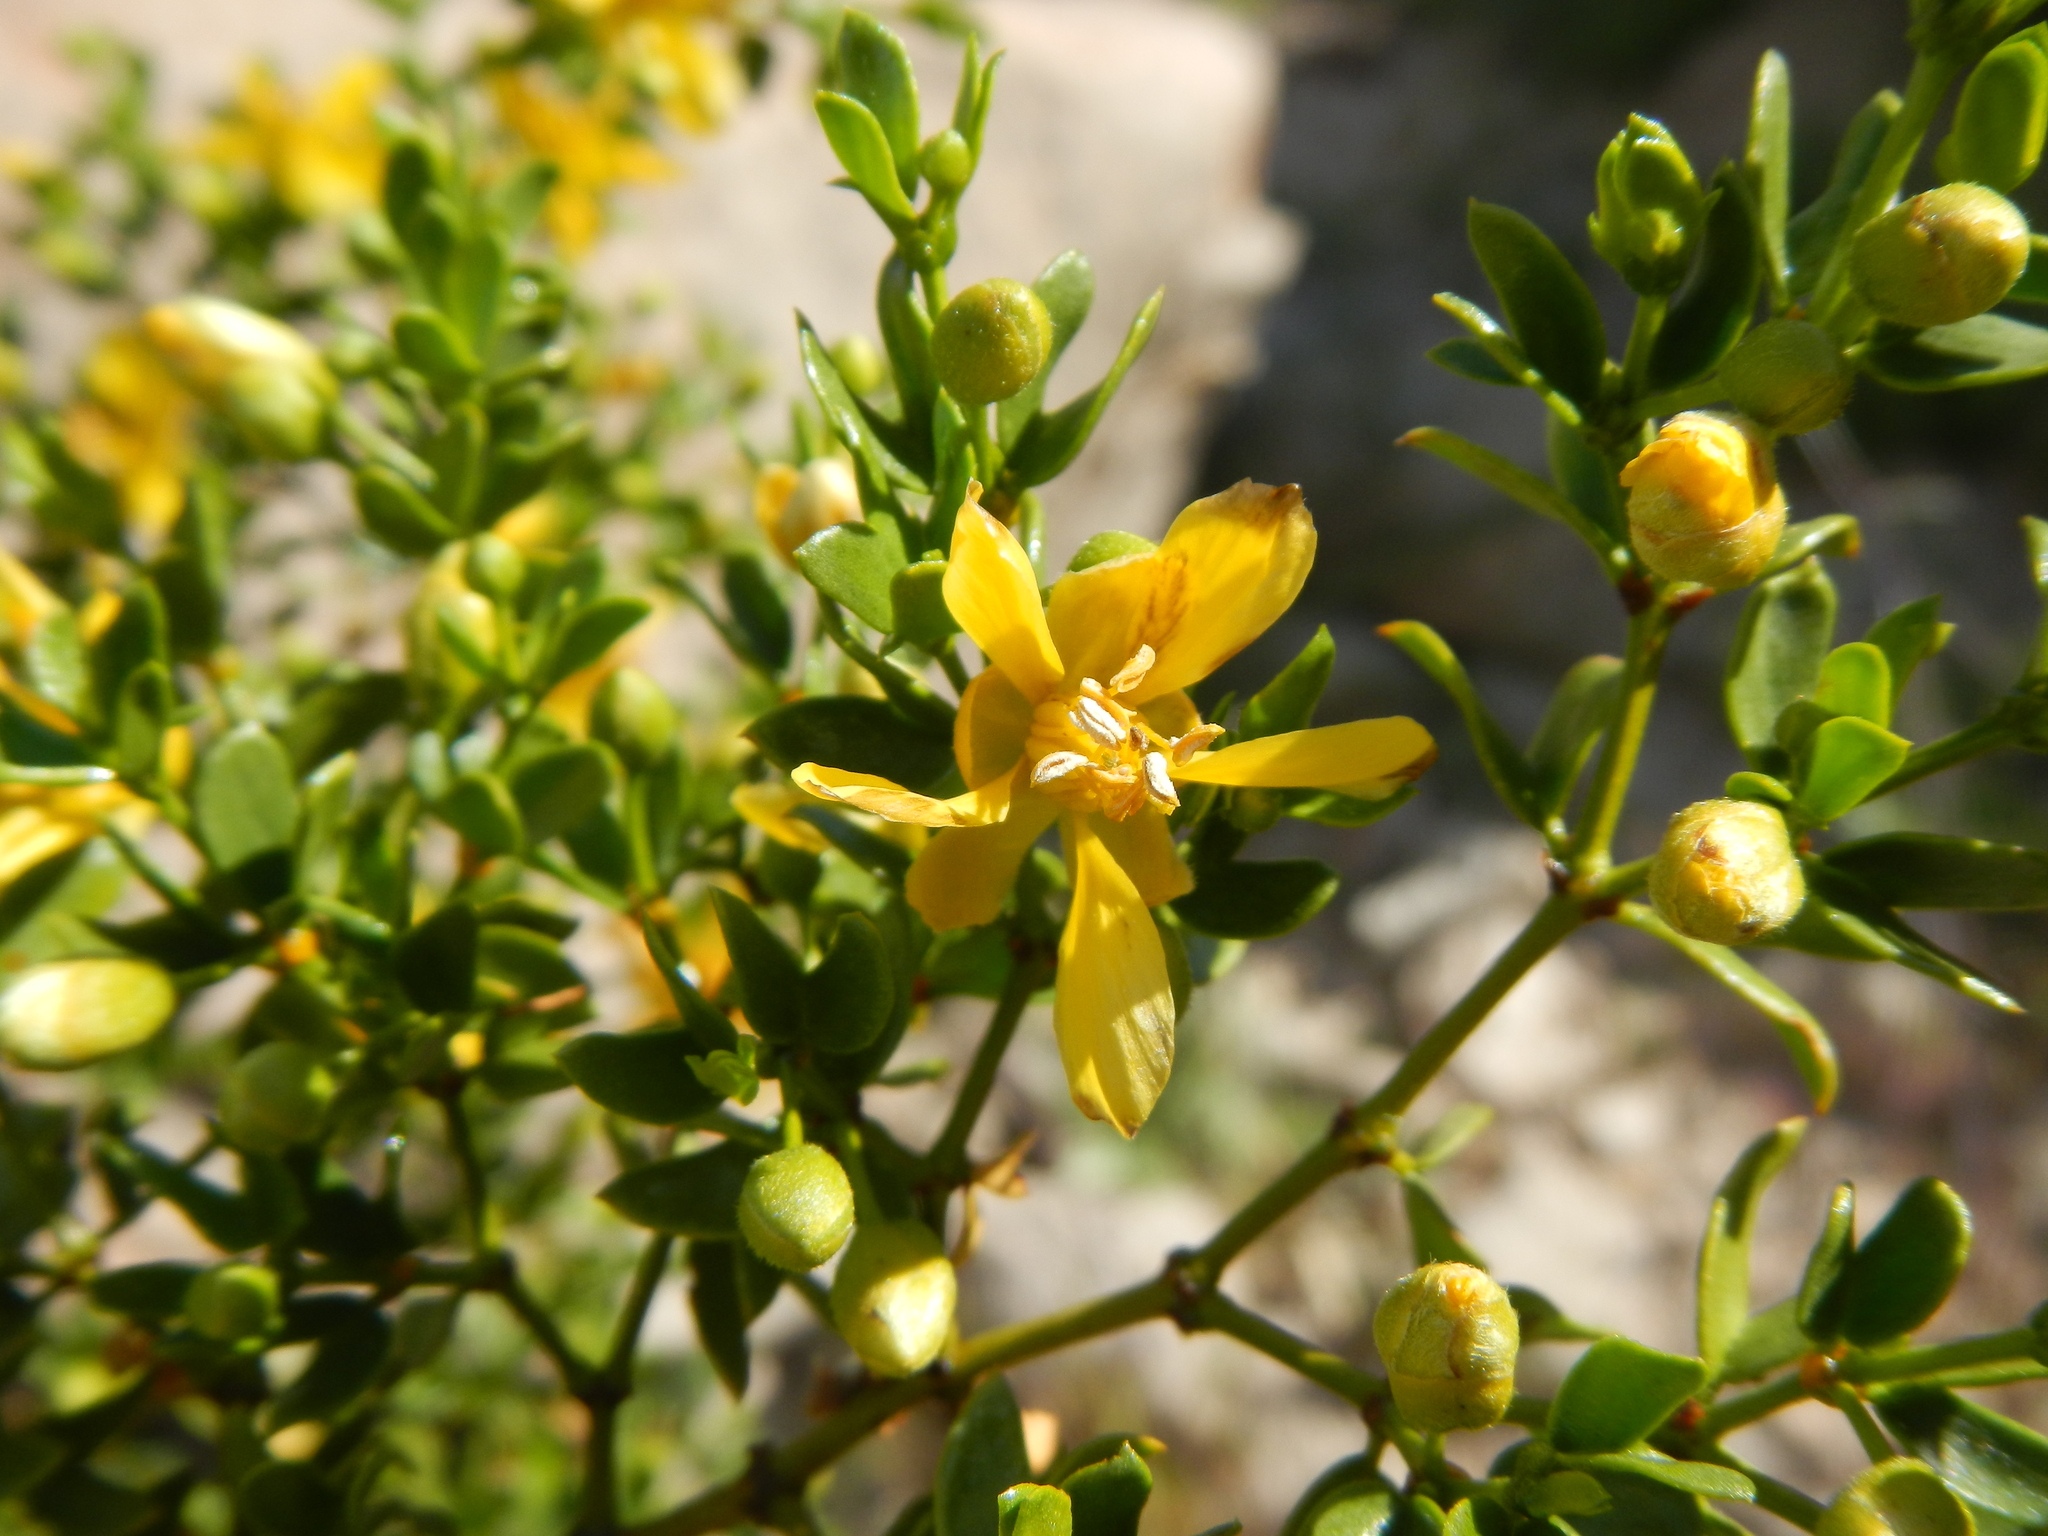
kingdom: Plantae
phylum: Tracheophyta
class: Magnoliopsida
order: Zygophyllales
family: Zygophyllaceae
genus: Larrea
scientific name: Larrea tridentata
